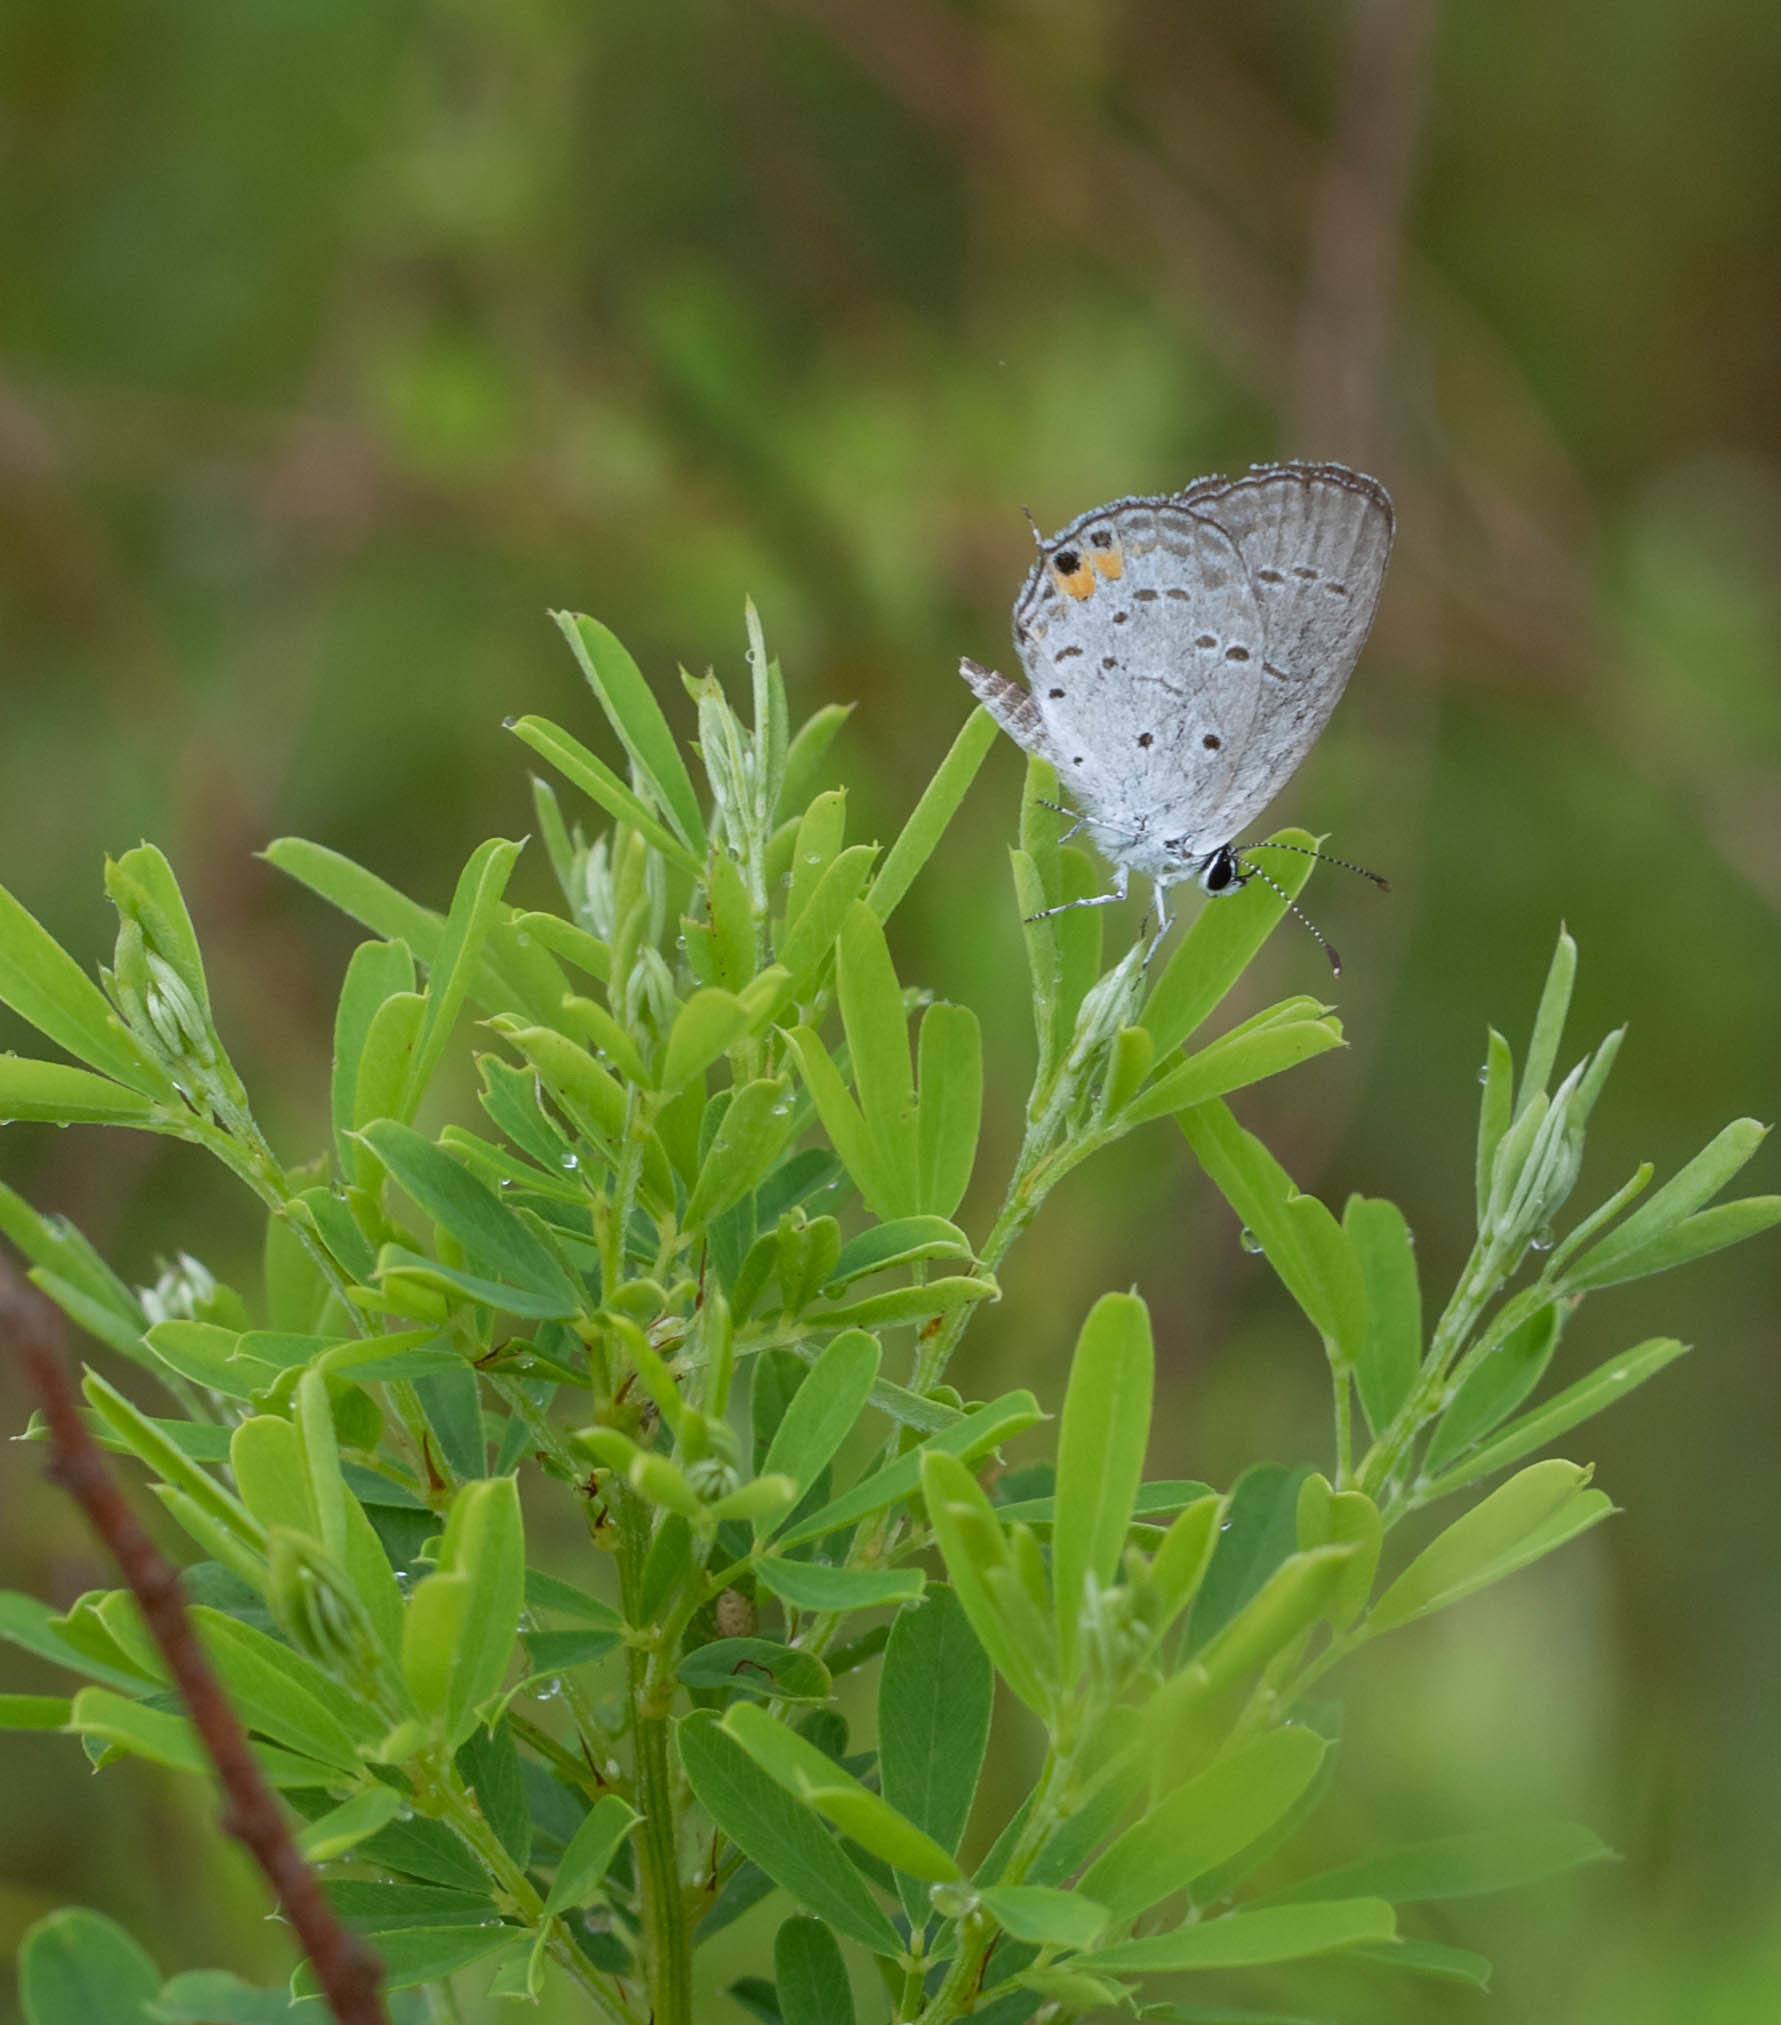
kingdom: Animalia
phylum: Arthropoda
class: Insecta
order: Lepidoptera
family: Lycaenidae
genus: Elkalyce
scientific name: Elkalyce comyntas
